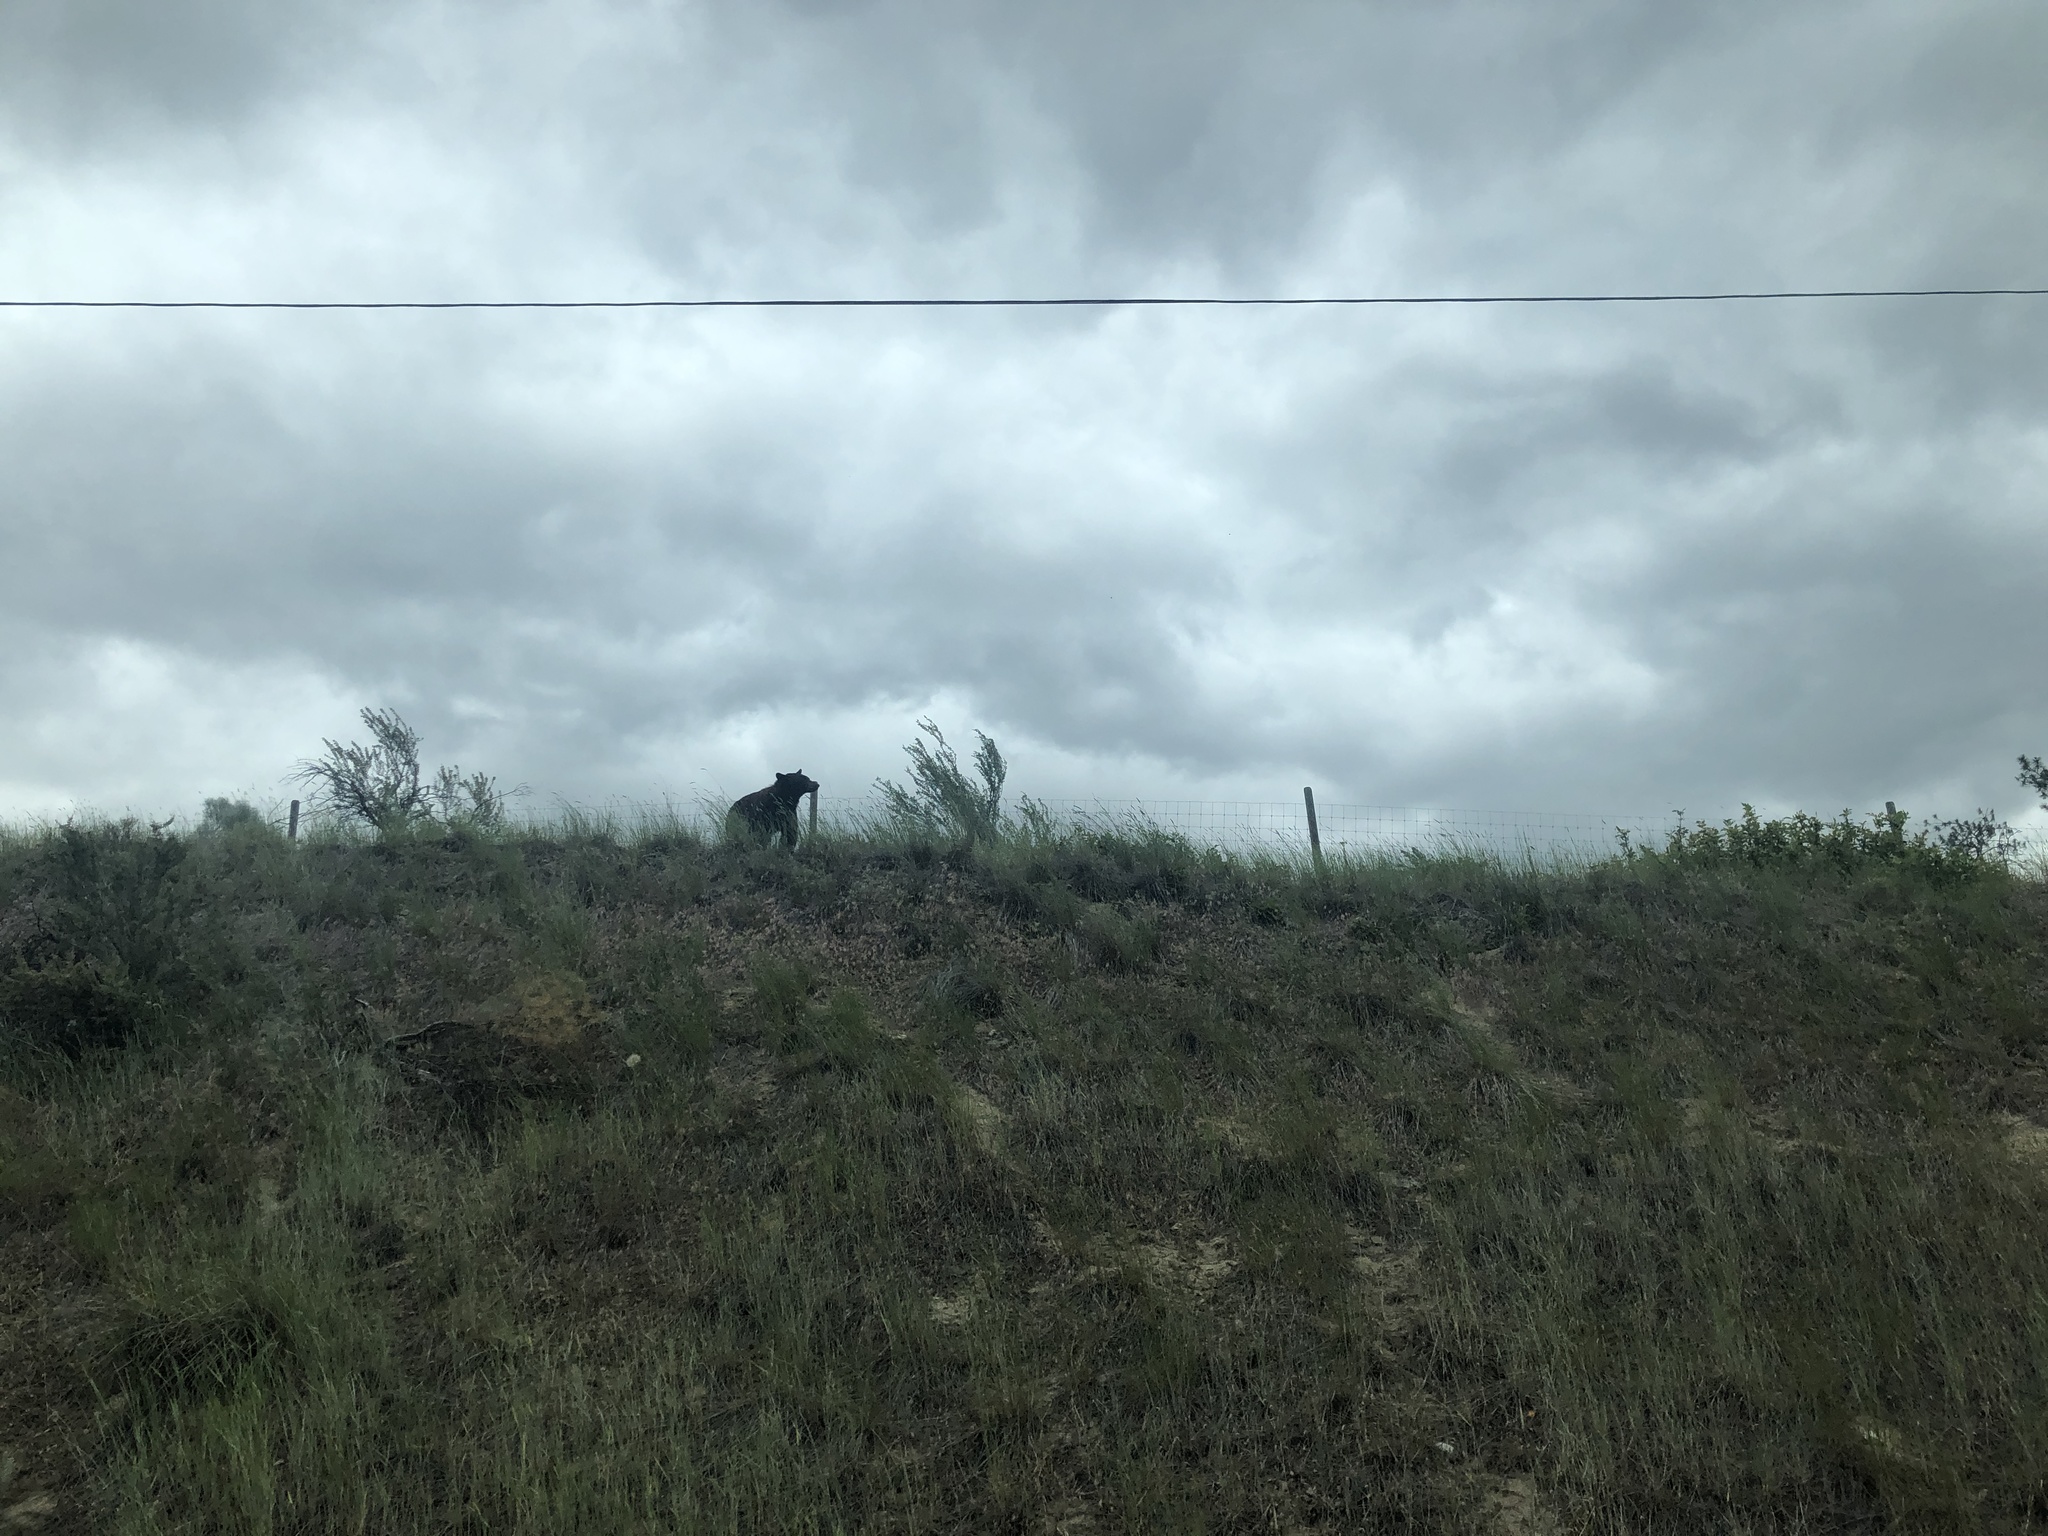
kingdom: Animalia
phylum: Chordata
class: Mammalia
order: Carnivora
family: Ursidae
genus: Ursus
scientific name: Ursus americanus
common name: American black bear
